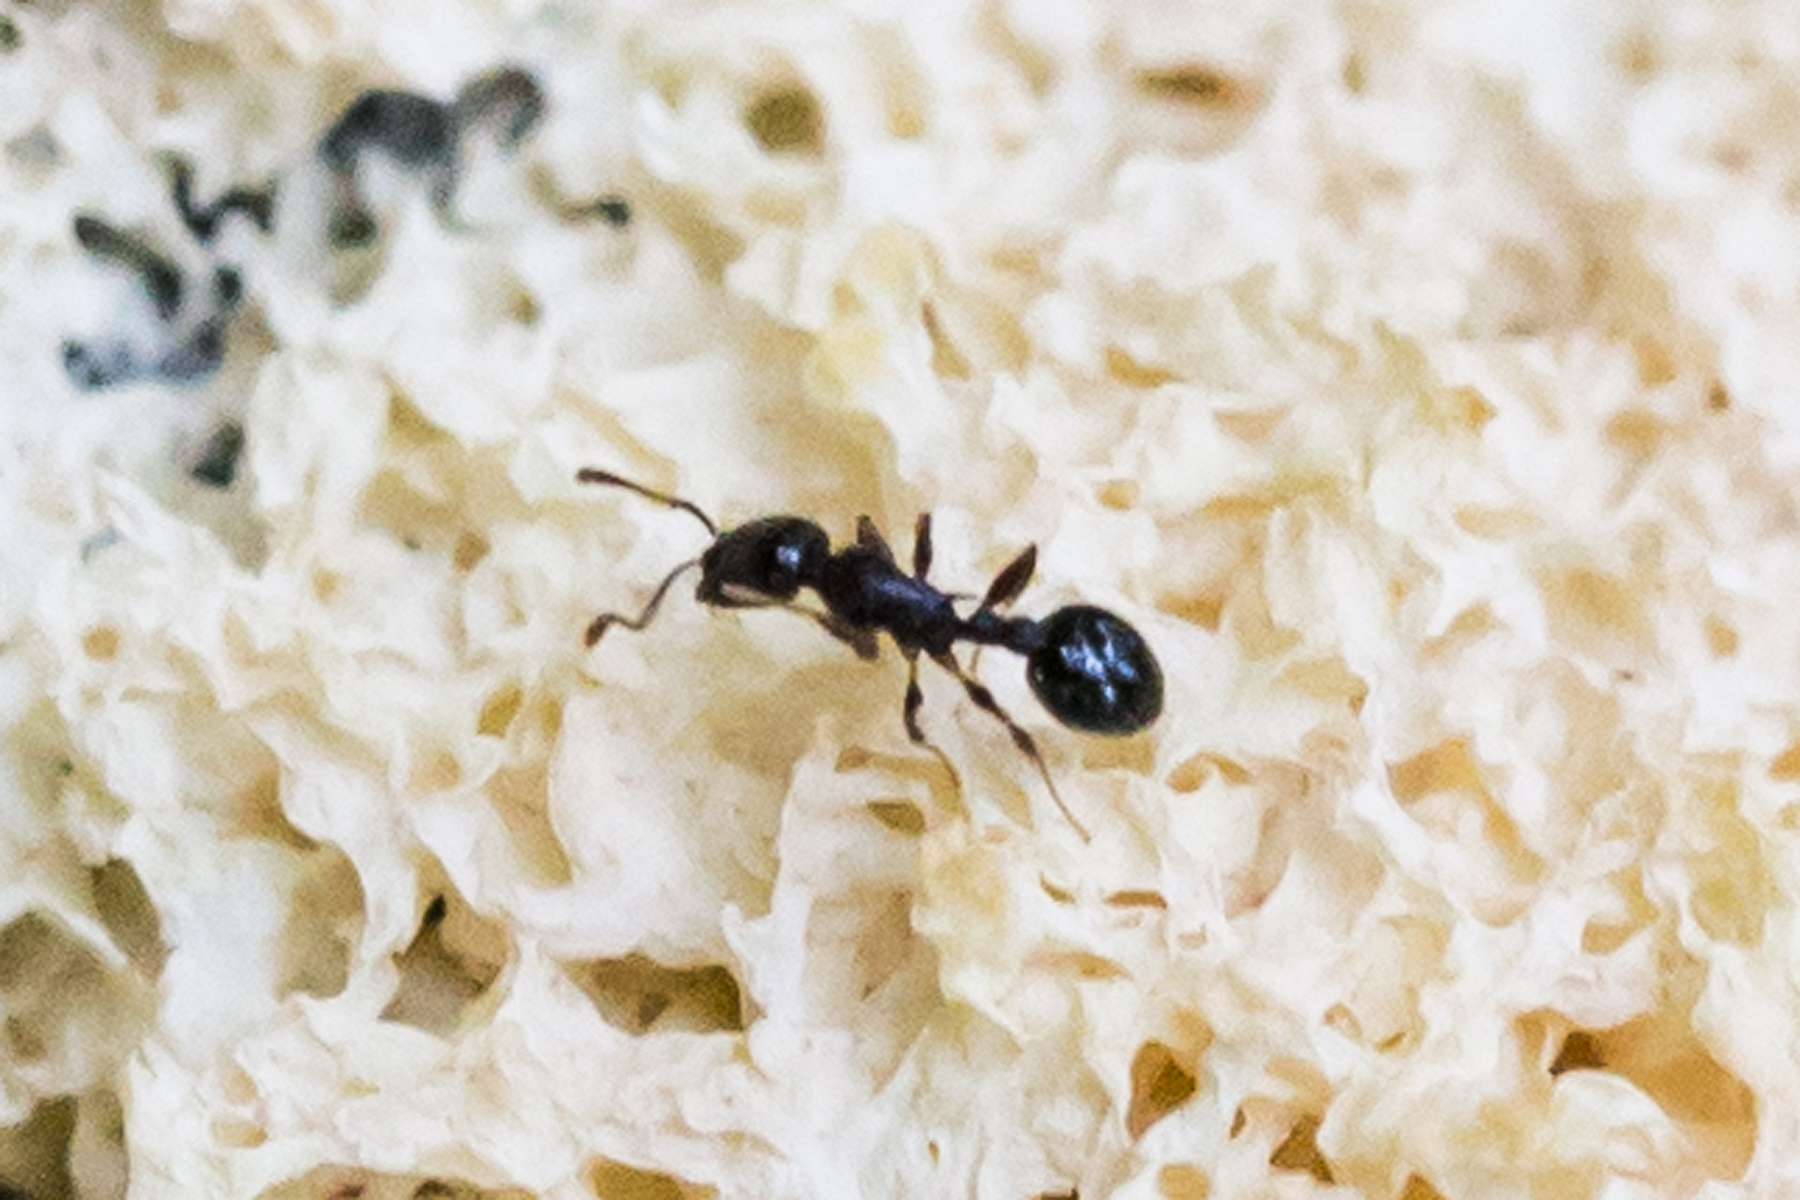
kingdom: Animalia
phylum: Arthropoda
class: Insecta
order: Hymenoptera
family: Formicidae
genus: Temnothorax
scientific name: Temnothorax longispinosus
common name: Long-spined acorn ant
